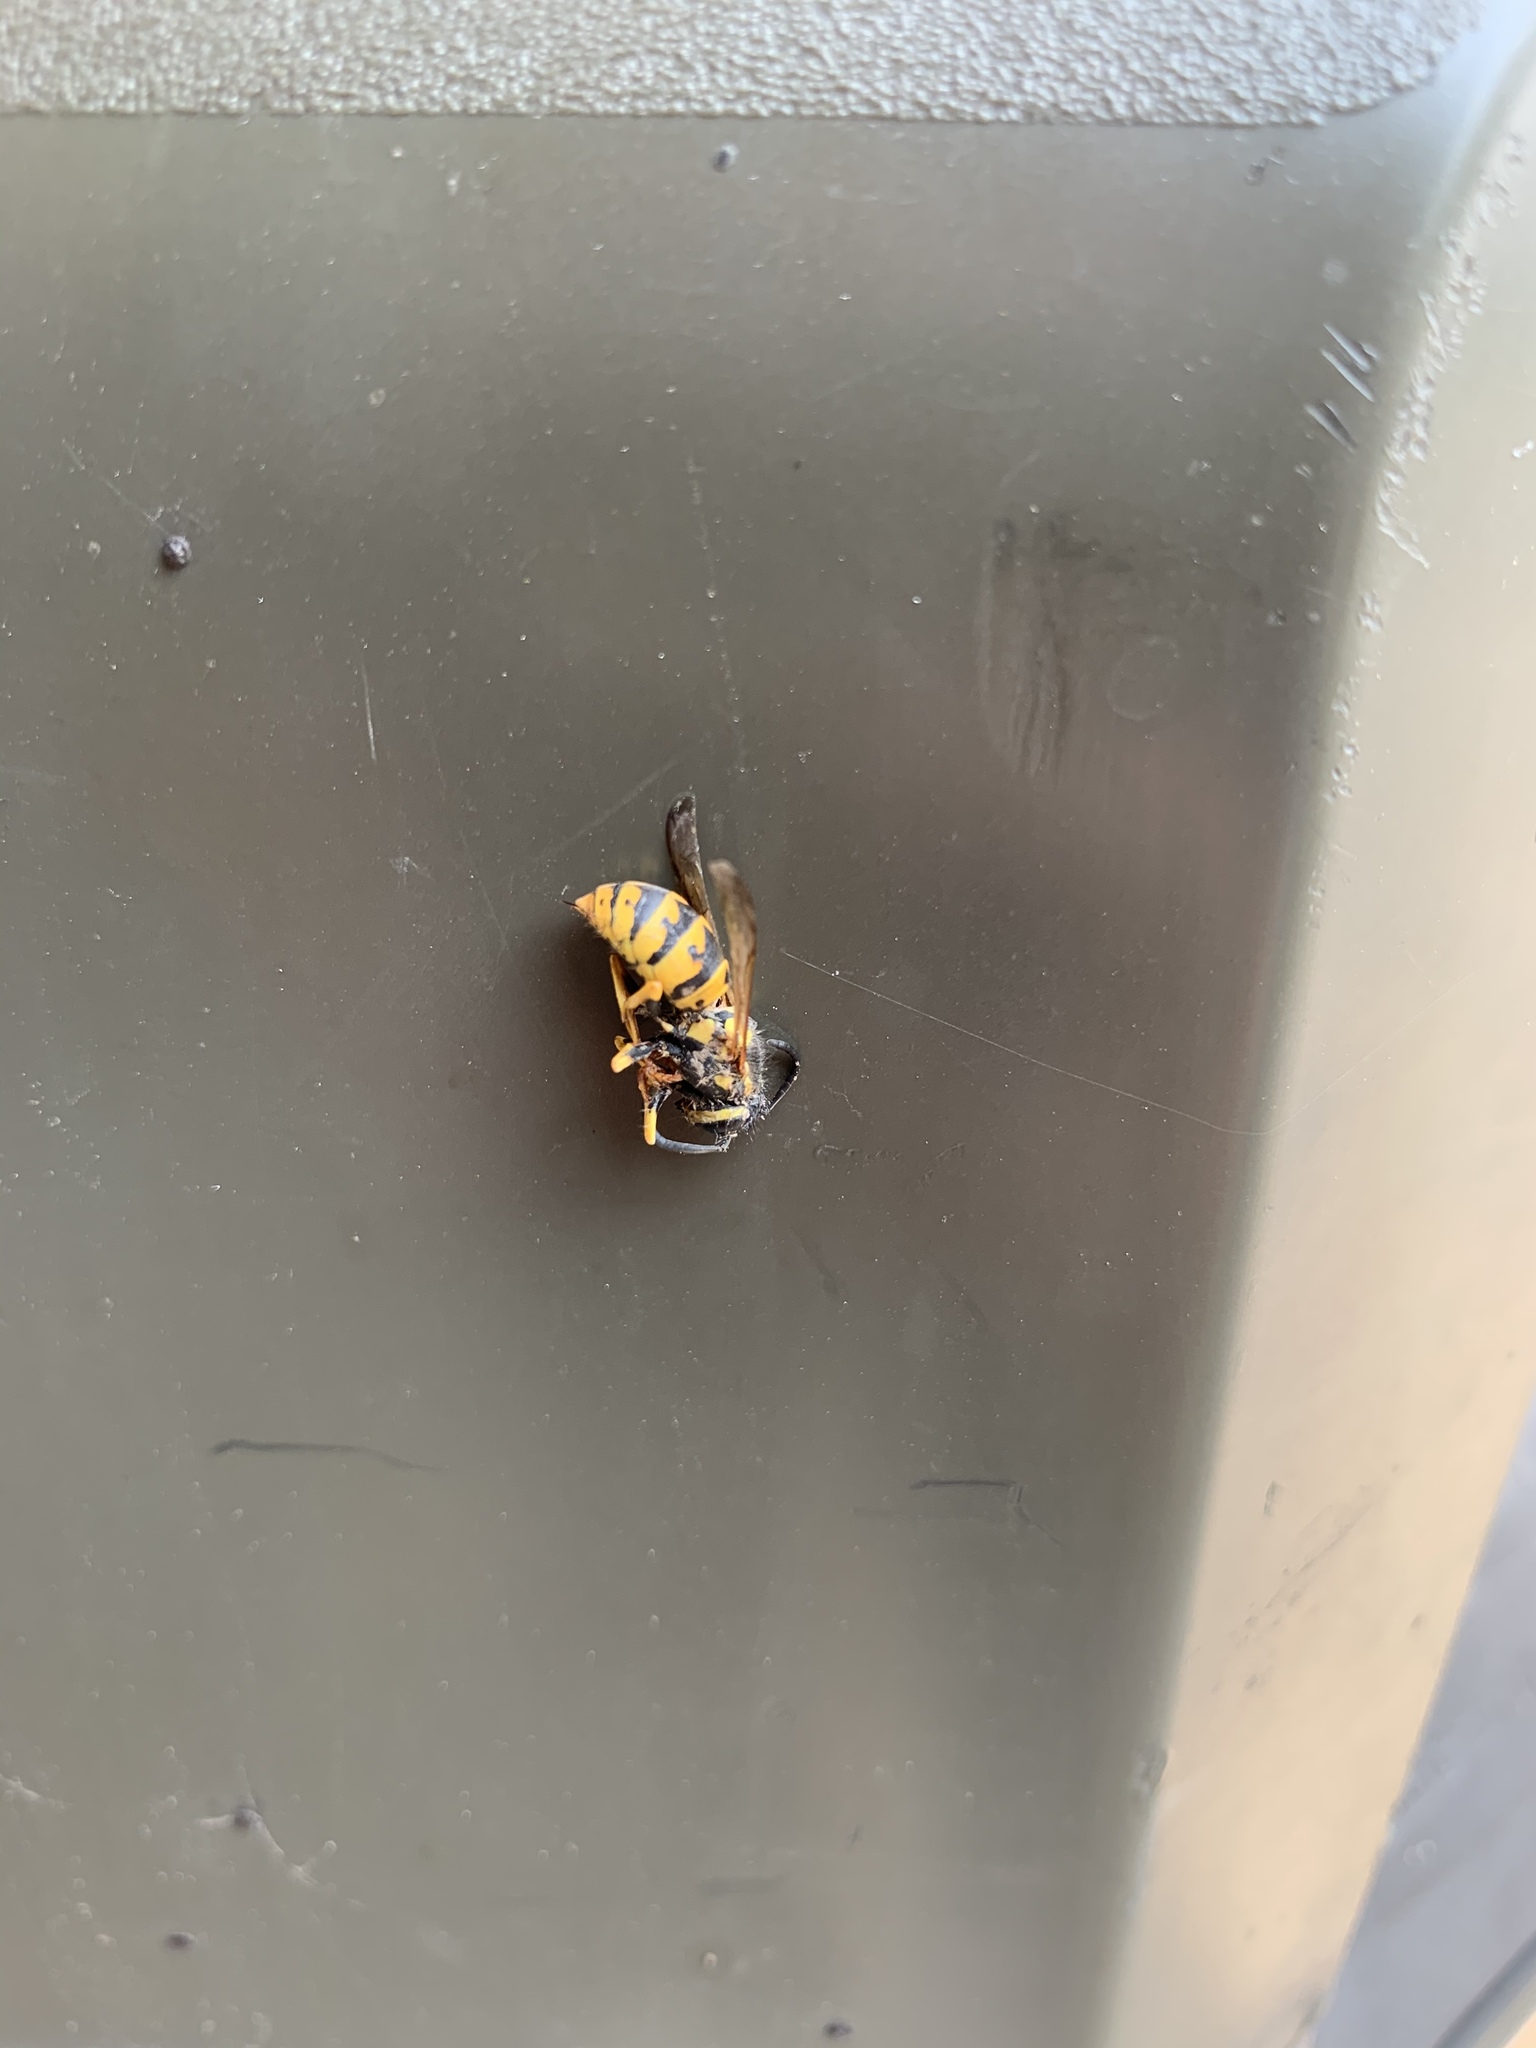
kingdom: Animalia
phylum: Arthropoda
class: Insecta
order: Hymenoptera
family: Vespidae
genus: Vespula
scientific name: Vespula germanica
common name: German wasp
